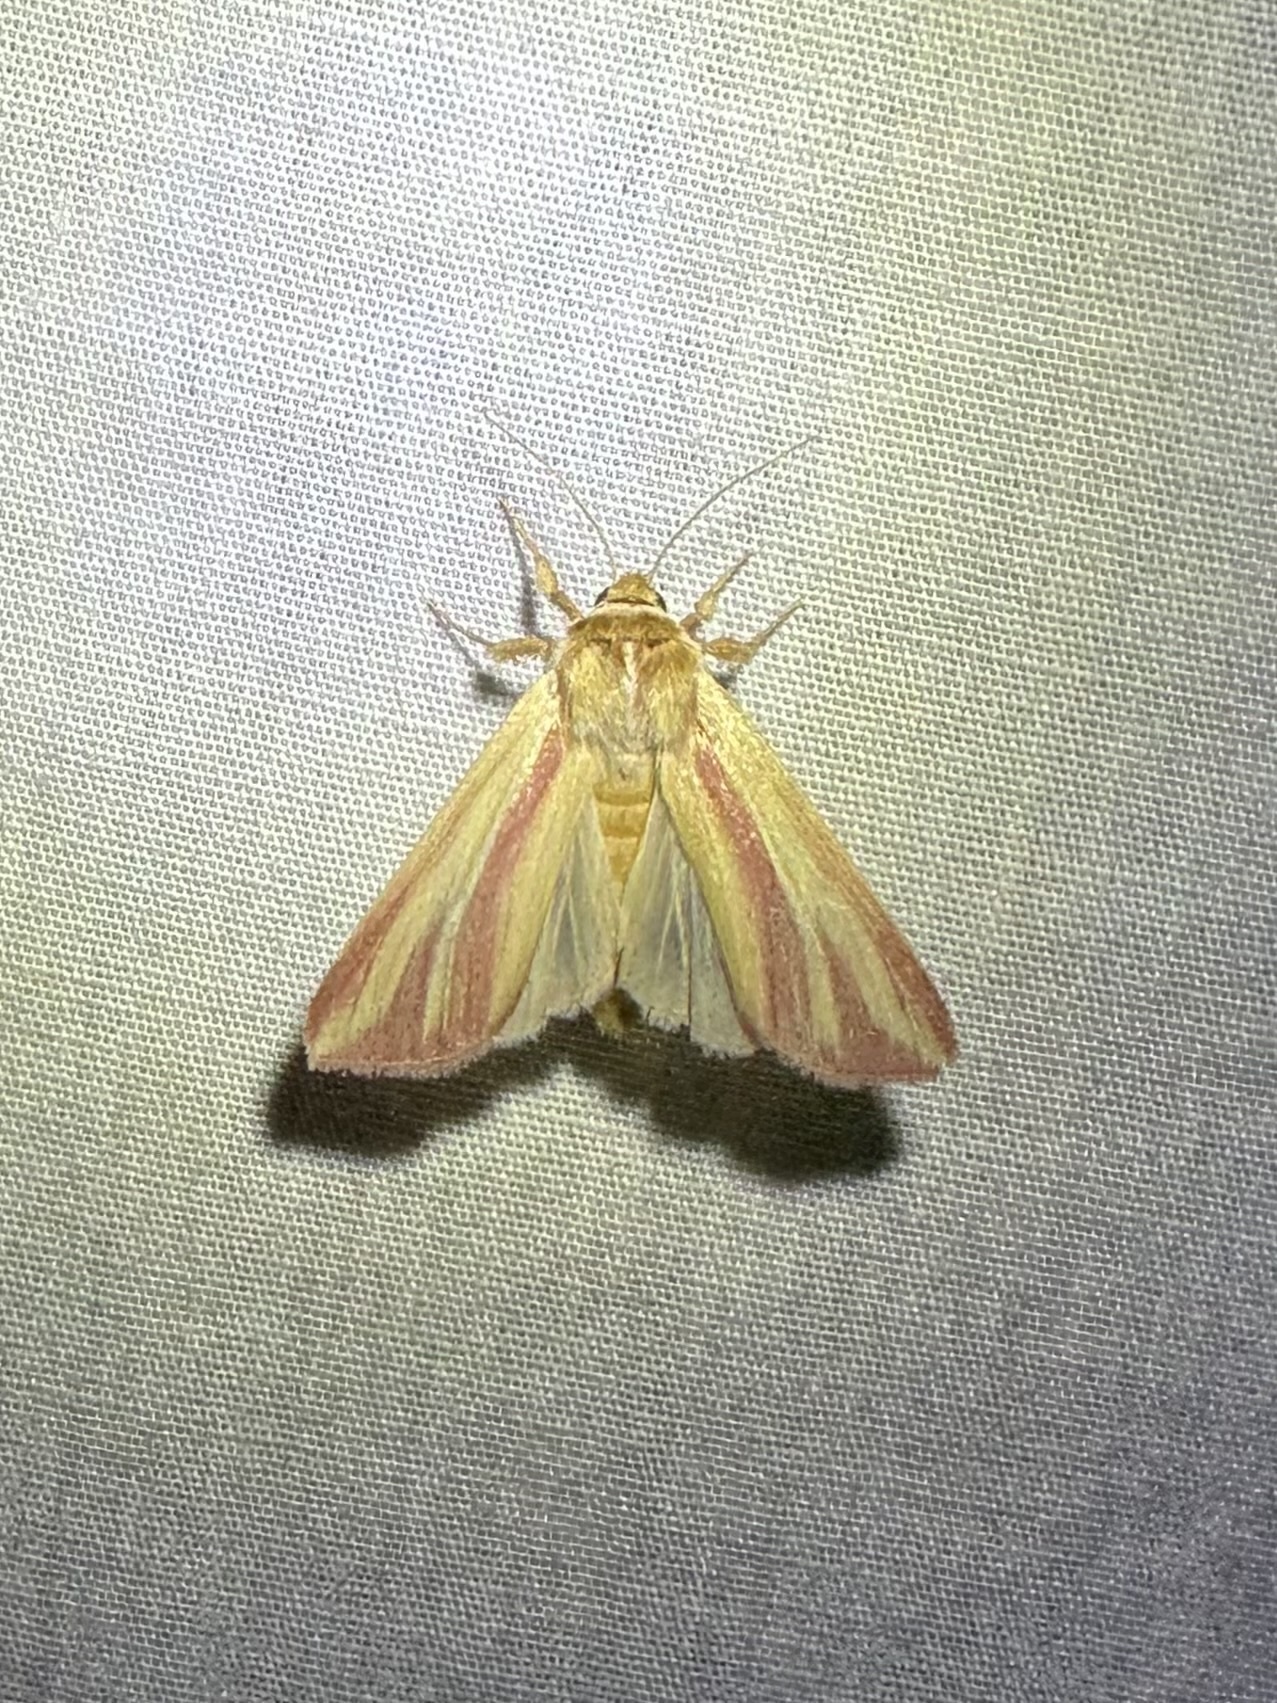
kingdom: Animalia
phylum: Arthropoda
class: Insecta
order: Lepidoptera
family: Noctuidae
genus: Dargida
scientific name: Dargida rubripennis
